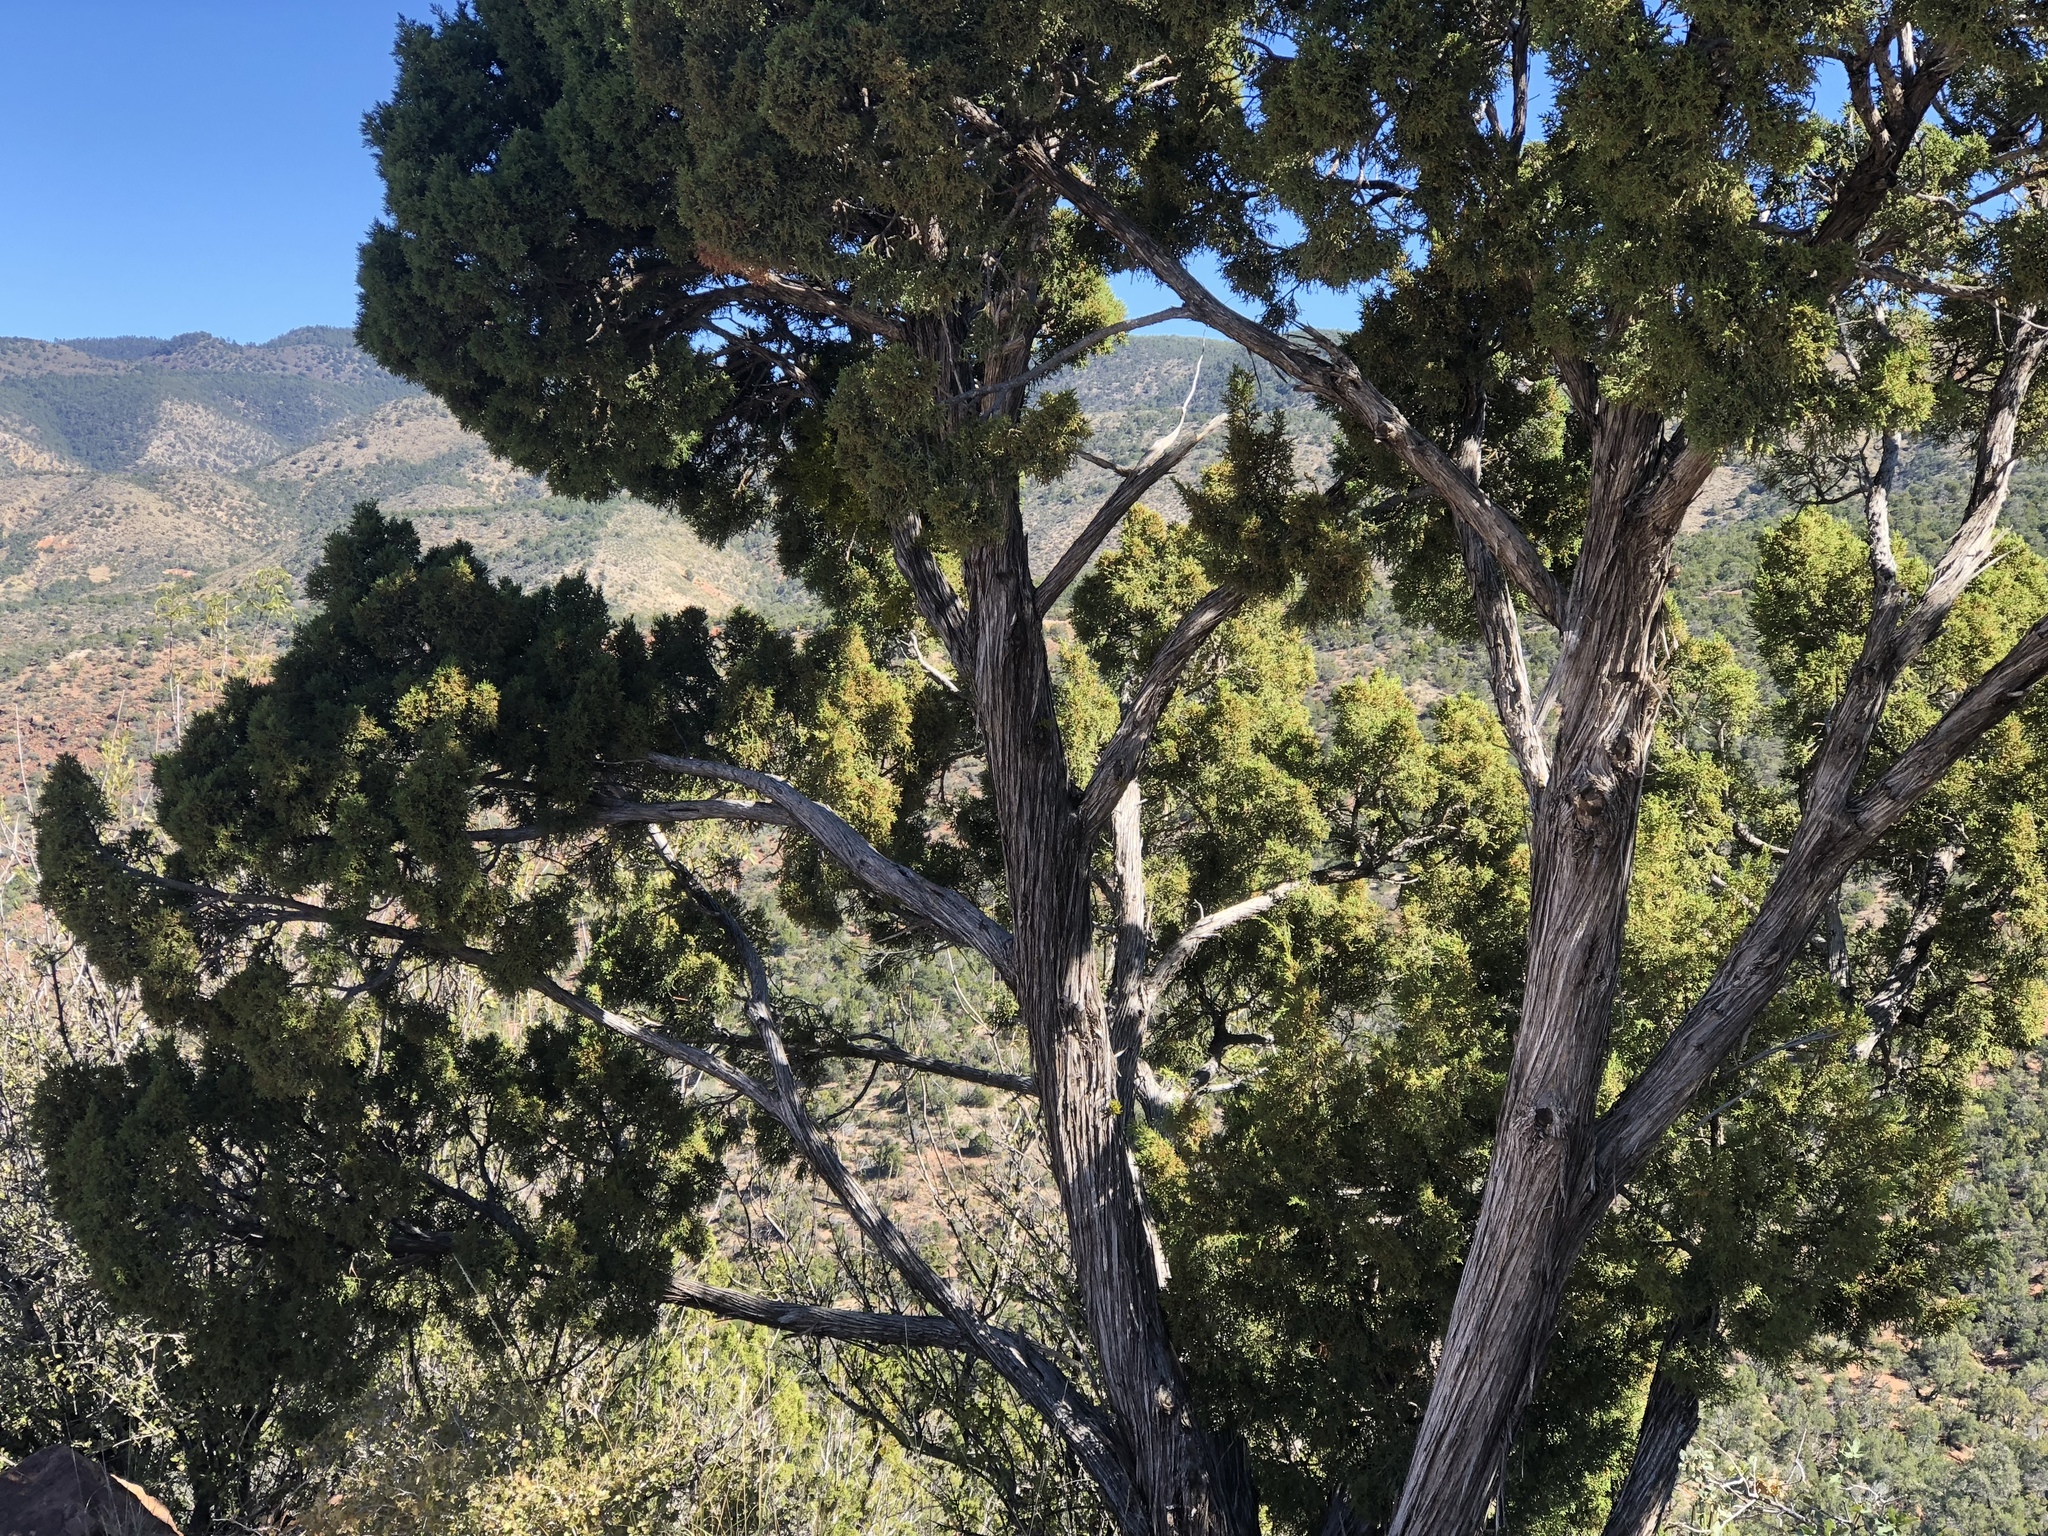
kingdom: Plantae
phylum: Tracheophyta
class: Pinopsida
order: Pinales
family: Cupressaceae
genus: Juniperus
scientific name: Juniperus monosperma
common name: One-seed juniper
